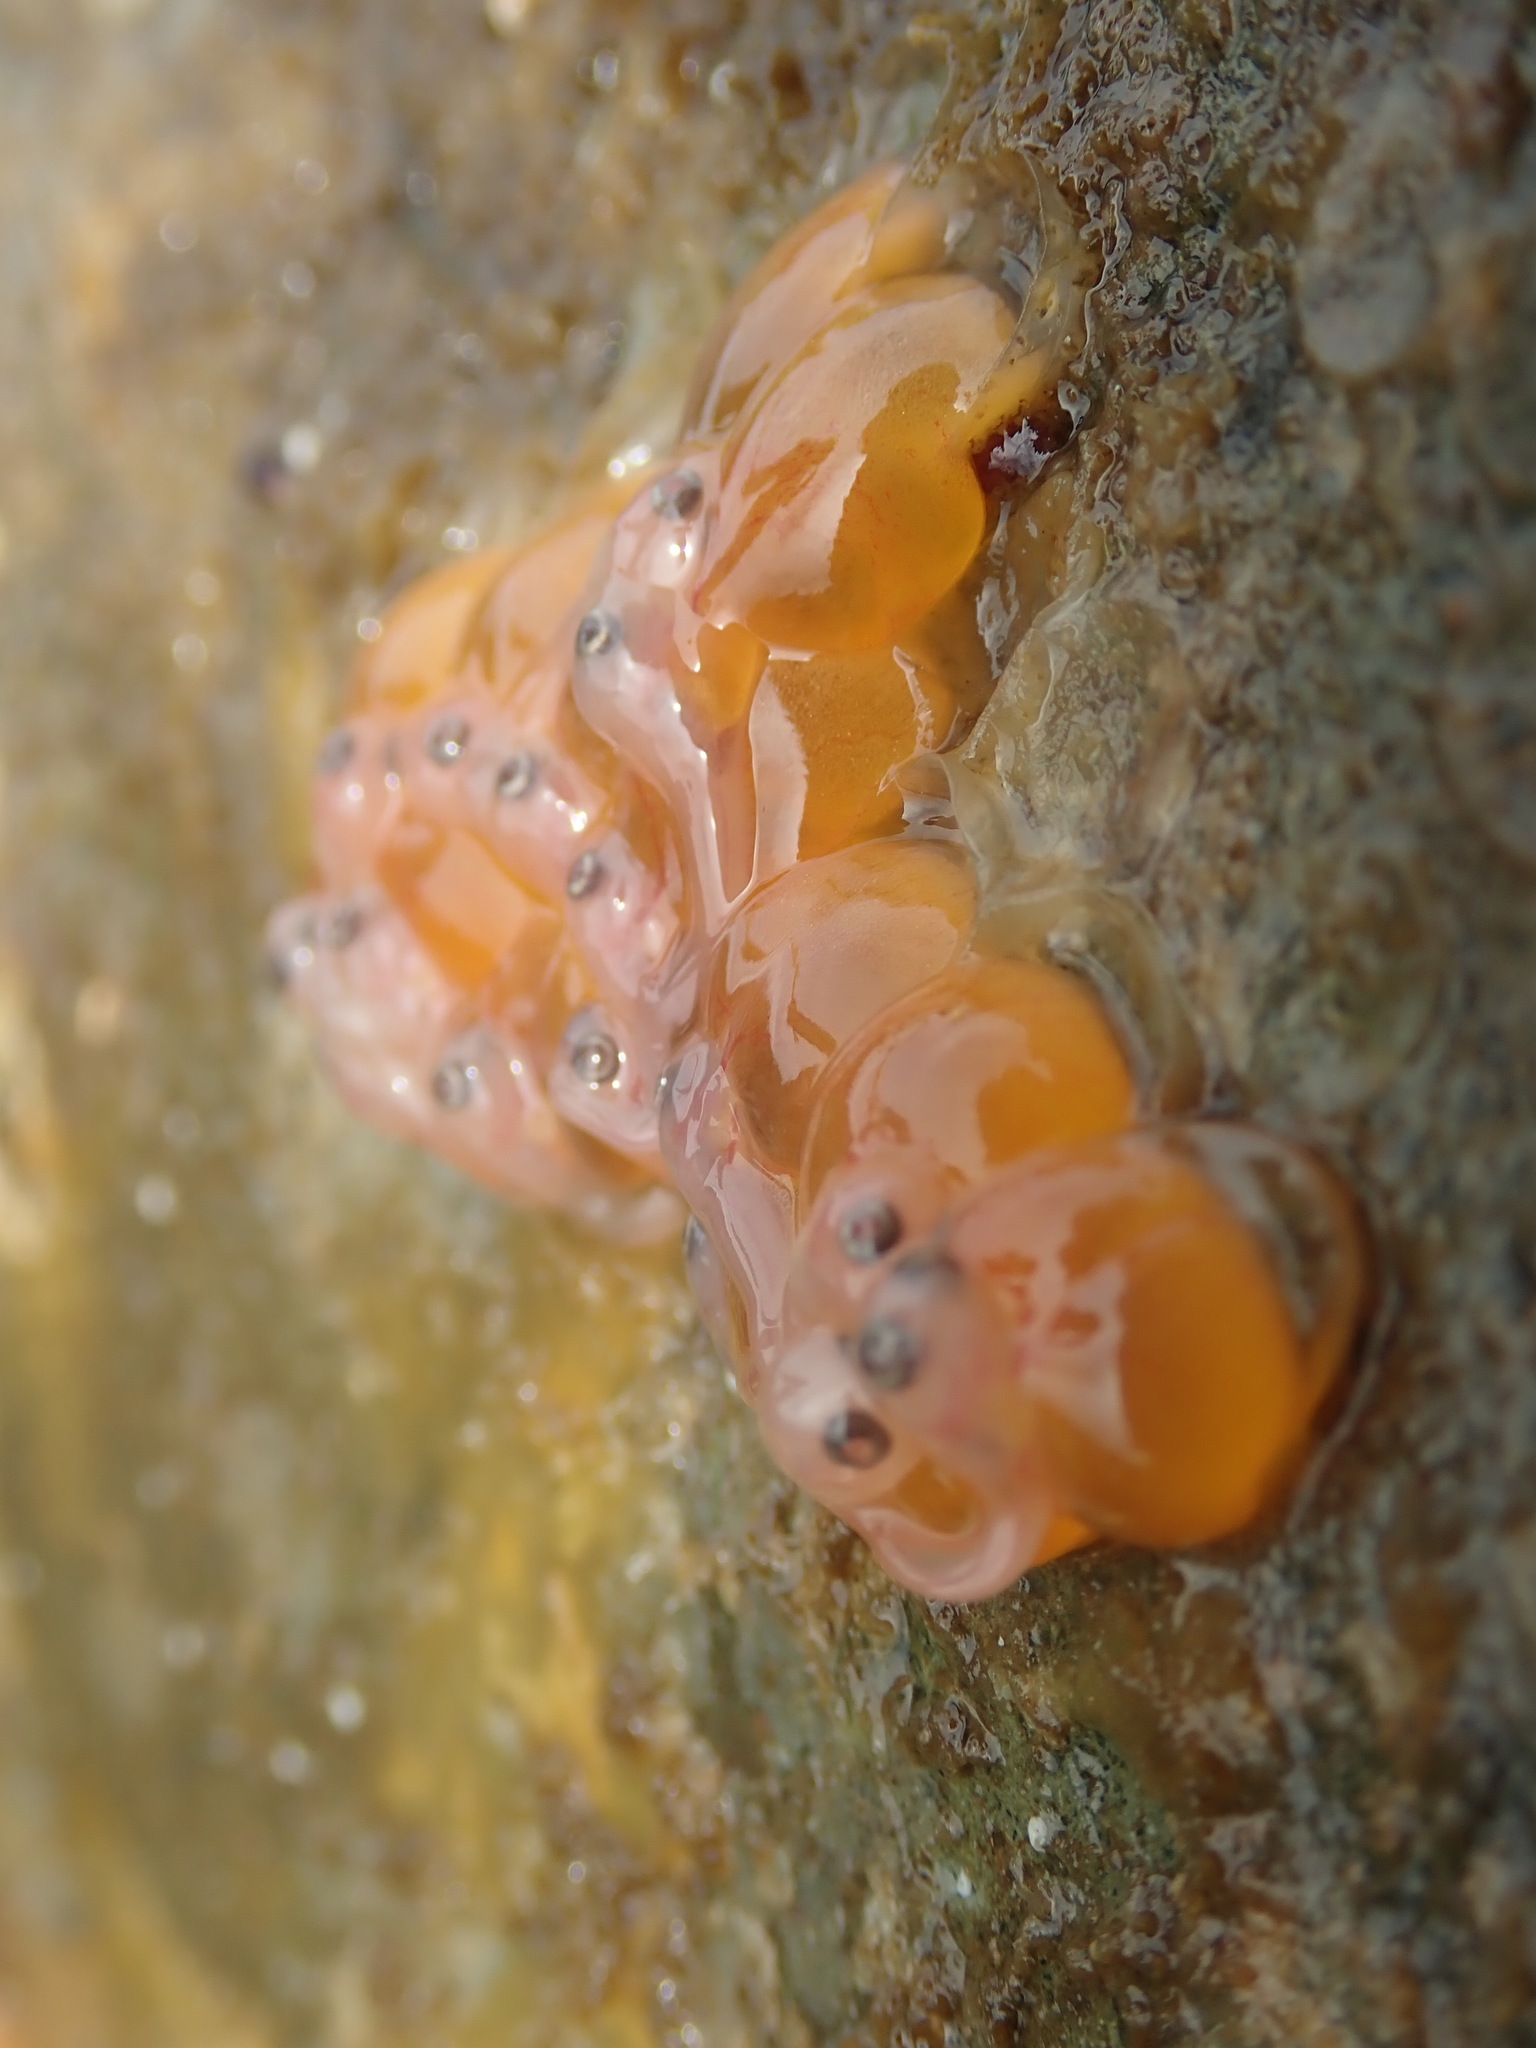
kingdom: Animalia
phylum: Chordata
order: Batrachoidiformes
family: Batrachoididae
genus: Porichthys
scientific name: Porichthys notatus
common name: Plainfin midshipman
